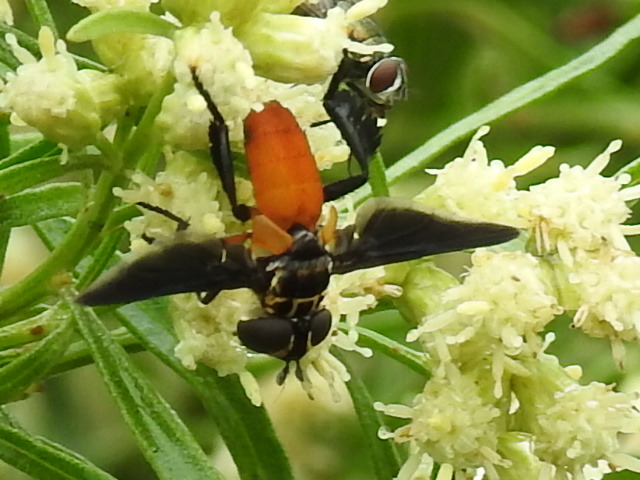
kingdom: Animalia
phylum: Arthropoda
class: Insecta
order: Diptera
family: Tachinidae
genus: Trichopoda
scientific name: Trichopoda pennipes
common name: Tachinid fly
